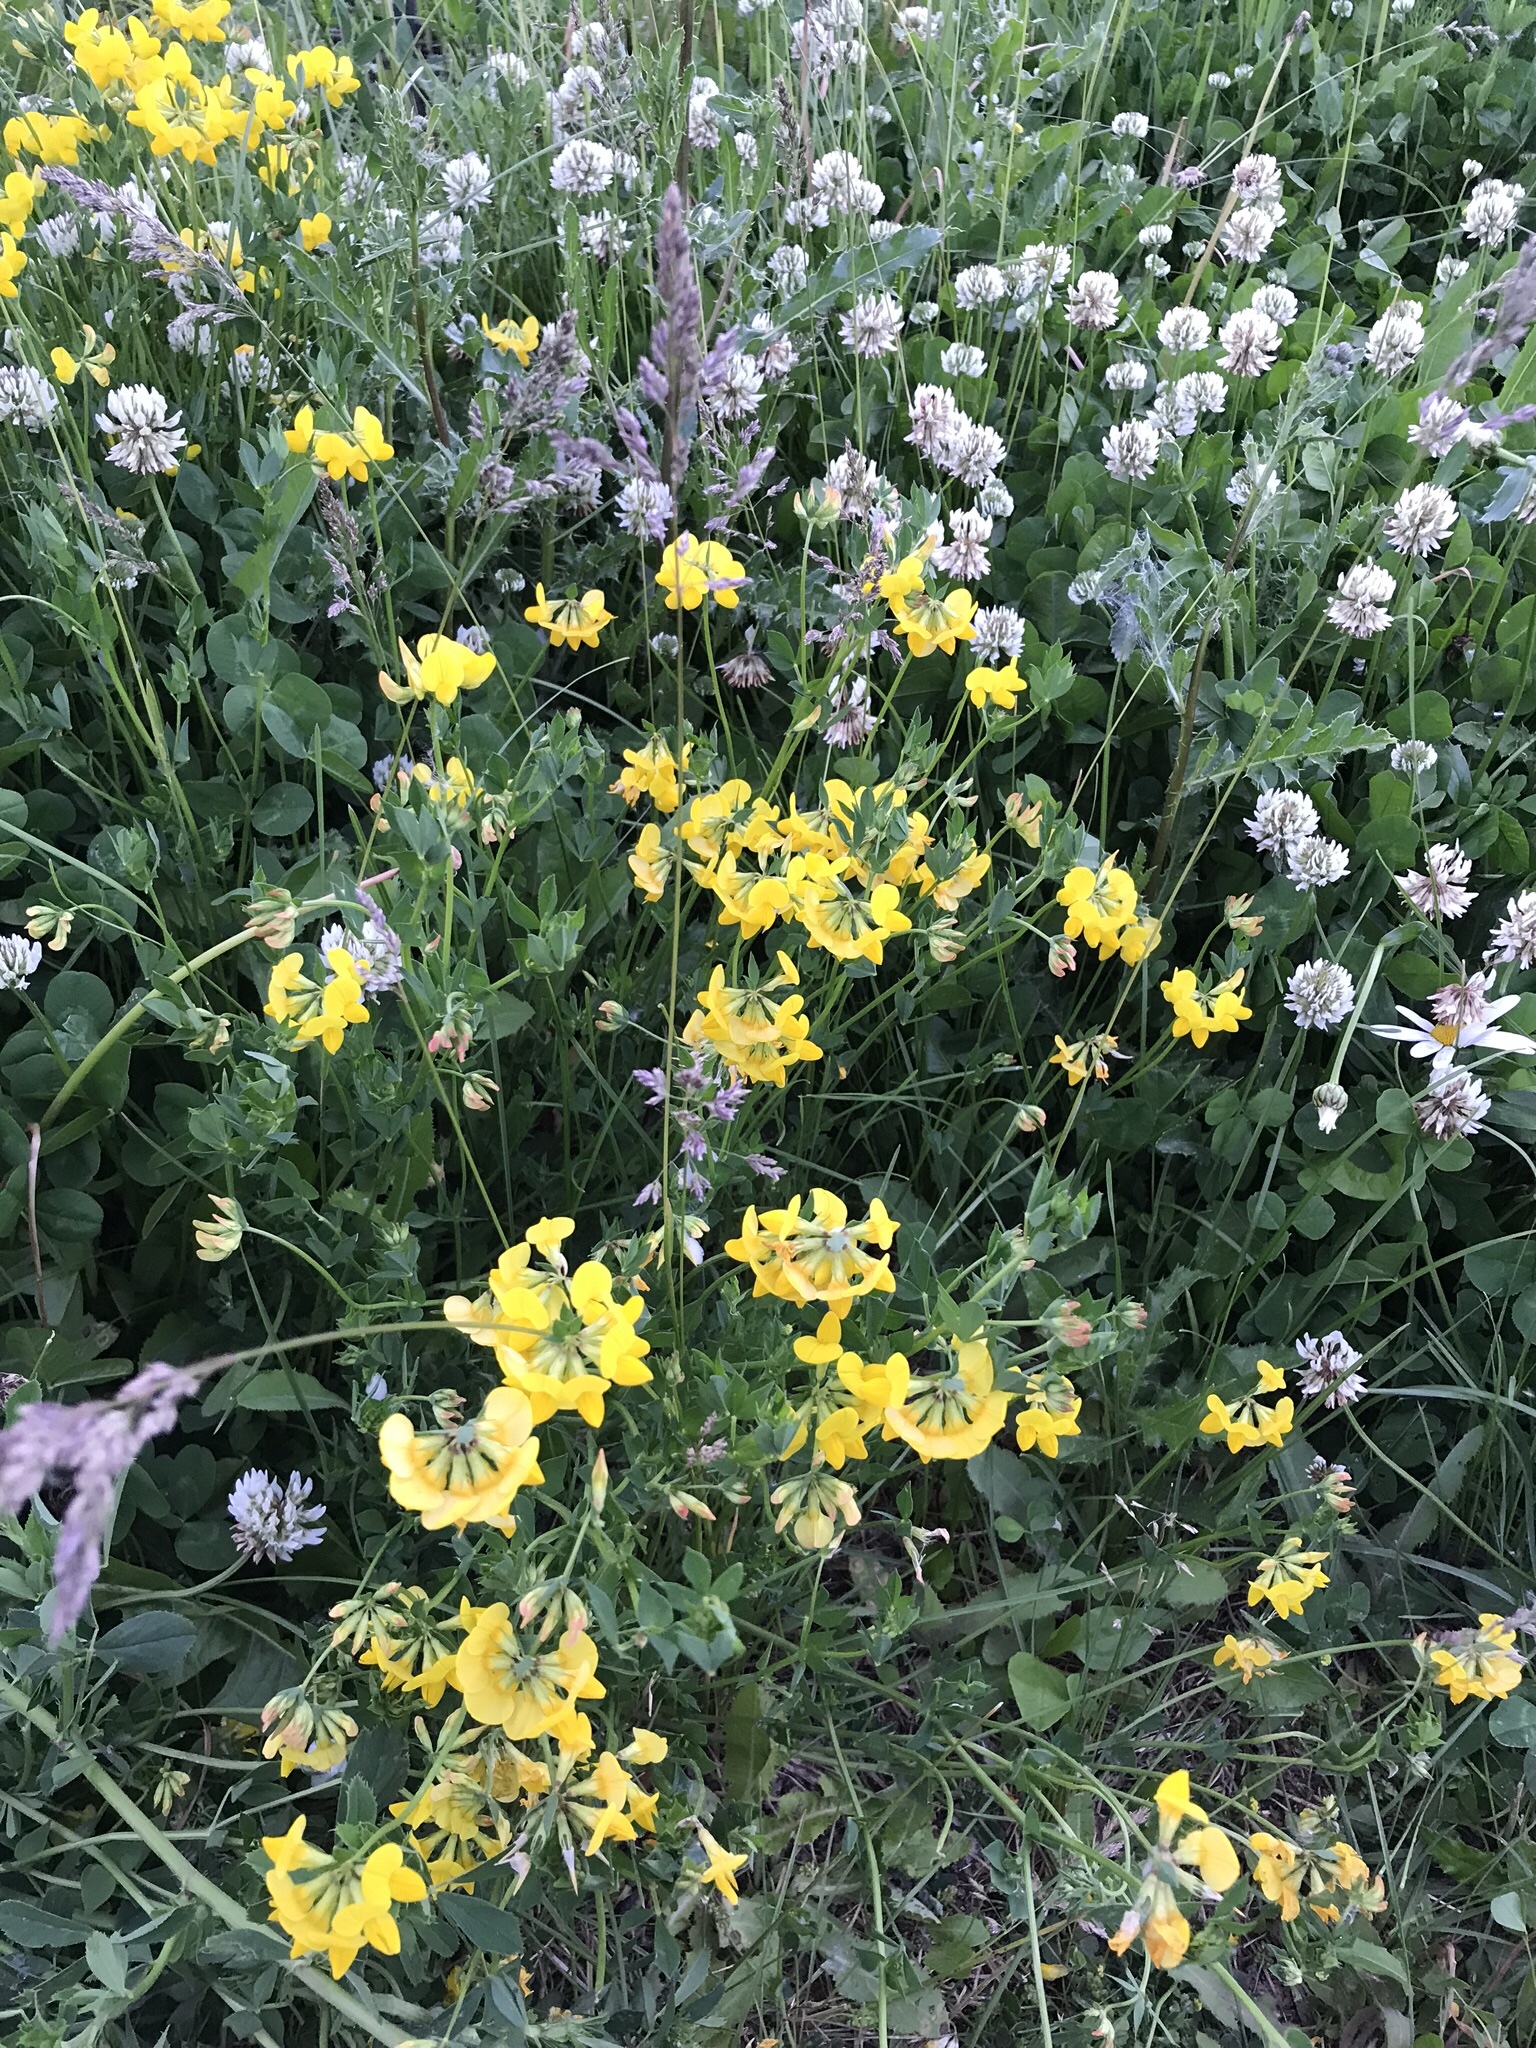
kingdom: Plantae
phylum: Tracheophyta
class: Magnoliopsida
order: Fabales
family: Fabaceae
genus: Lotus
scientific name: Lotus corniculatus
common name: Common bird's-foot-trefoil
